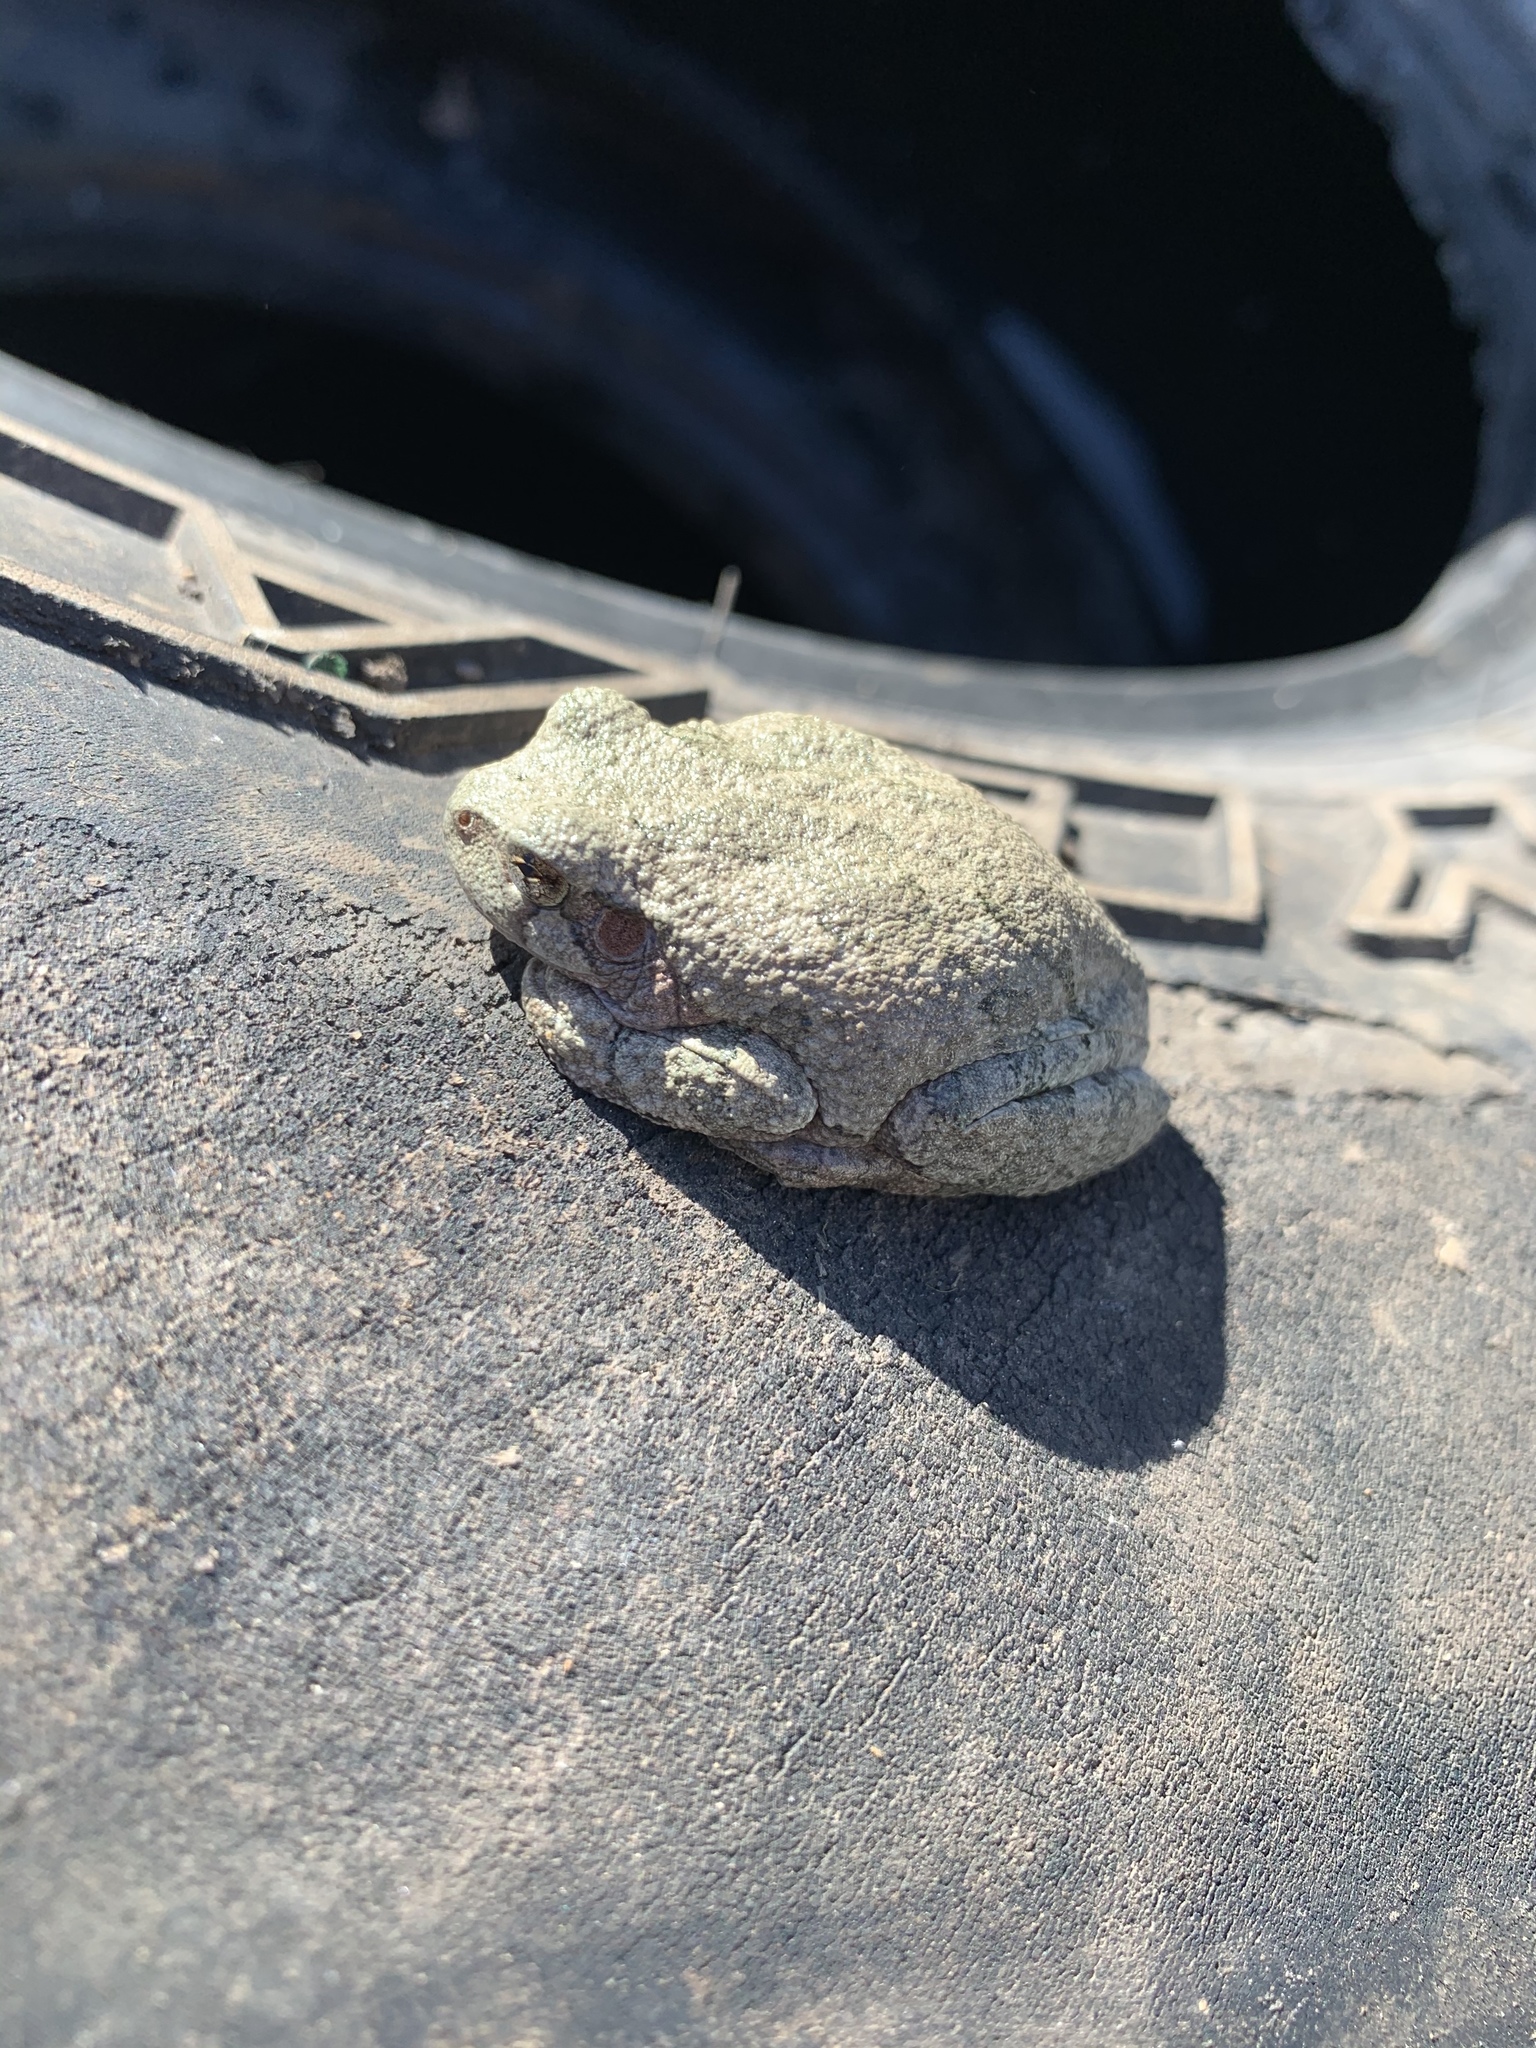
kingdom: Animalia
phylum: Chordata
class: Amphibia
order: Anura
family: Hylidae
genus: Hyla
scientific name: Hyla
